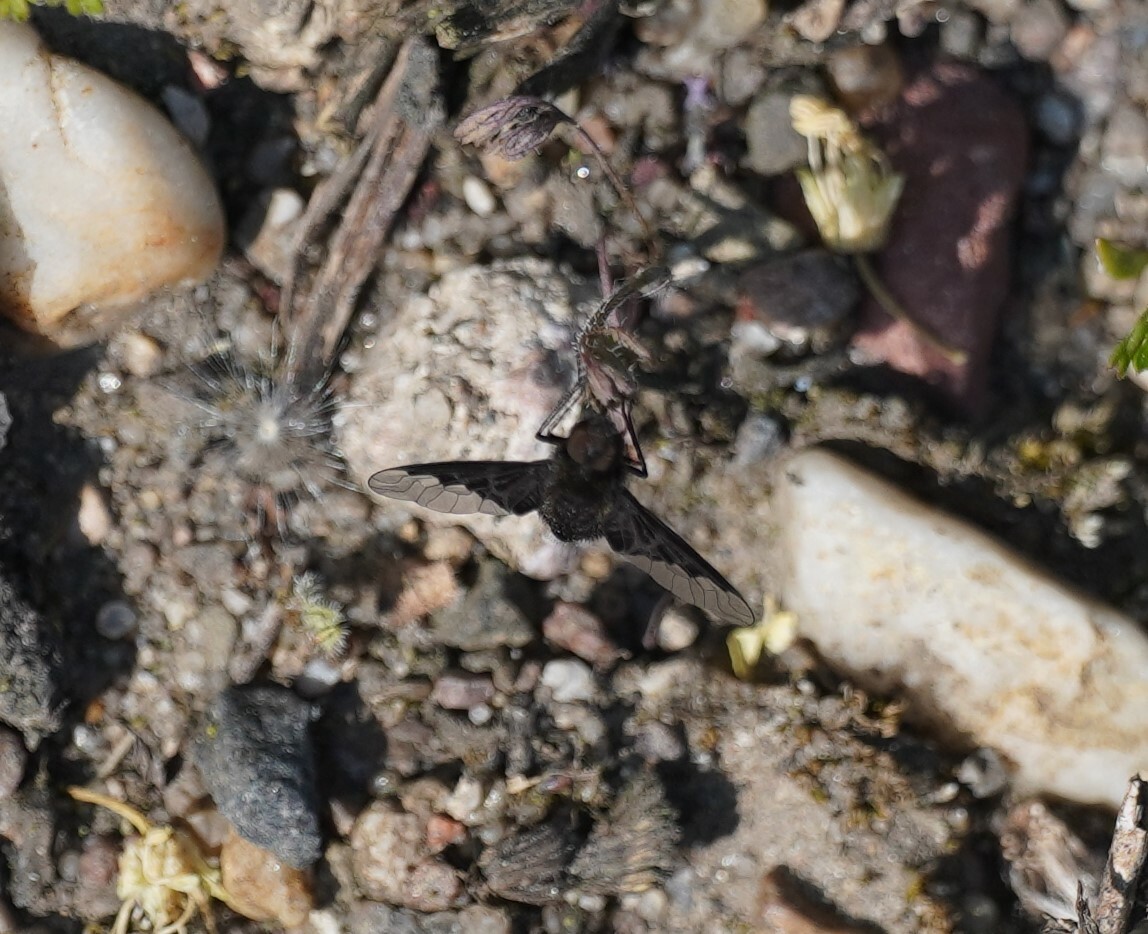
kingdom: Animalia
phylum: Arthropoda
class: Insecta
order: Diptera
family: Bombyliidae
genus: Hemipenthes
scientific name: Hemipenthes morio
